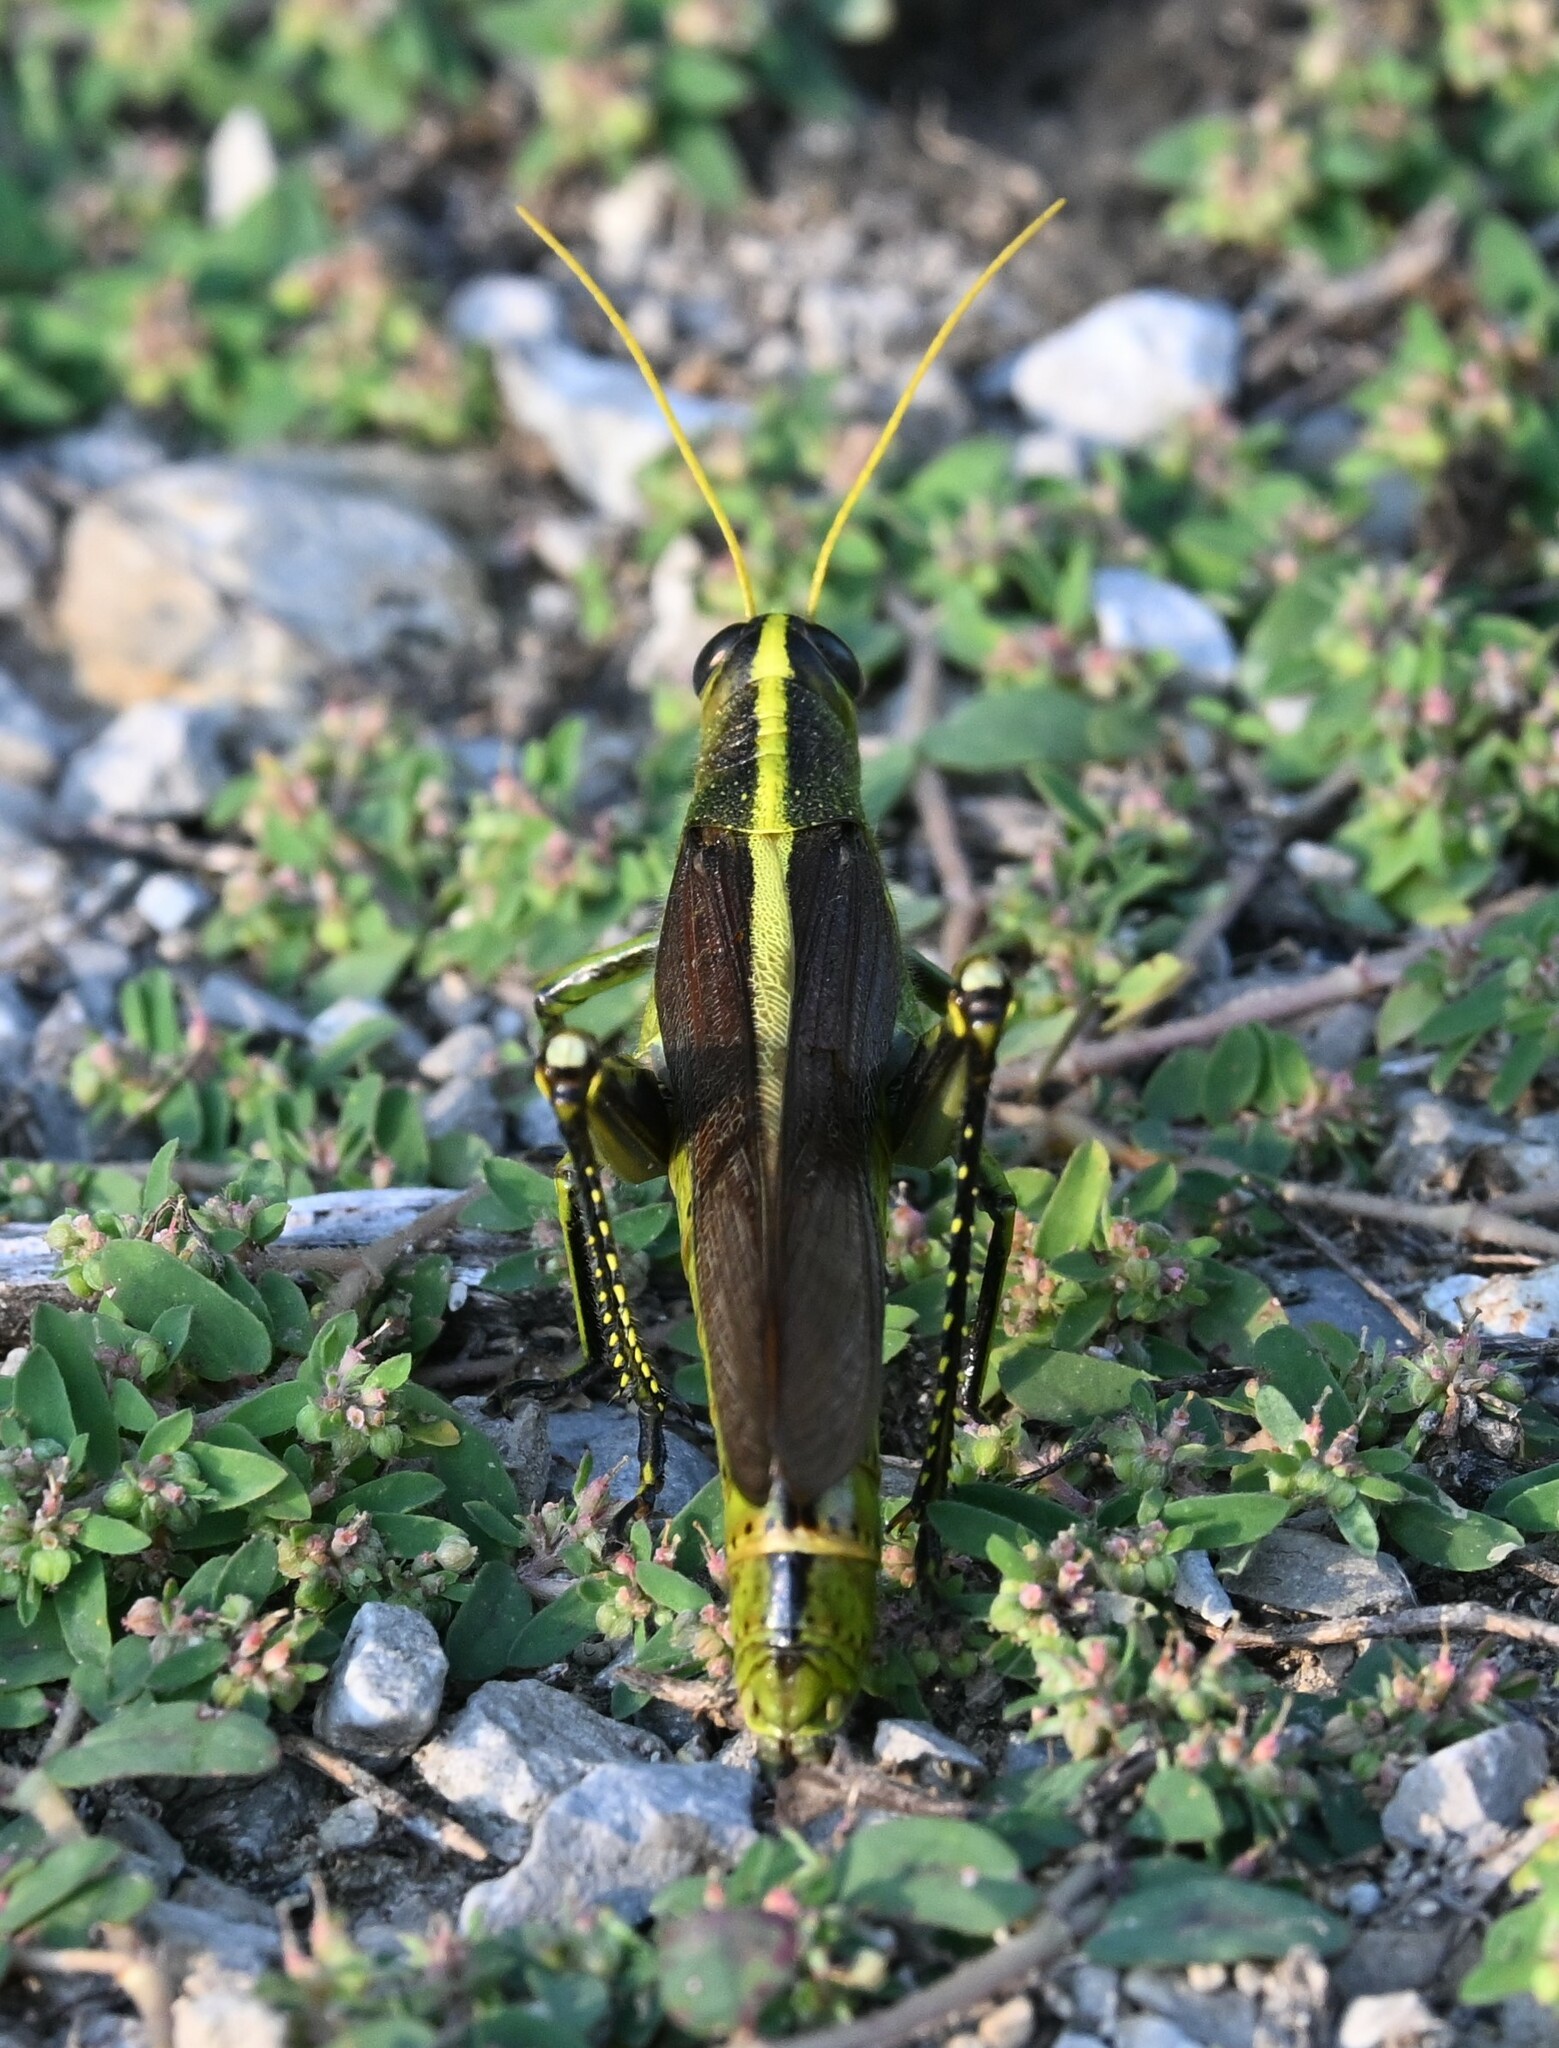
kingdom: Animalia
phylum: Arthropoda
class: Insecta
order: Orthoptera
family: Acrididae
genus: Schistocerca
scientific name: Schistocerca obscura
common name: Obscure bird grasshopper
